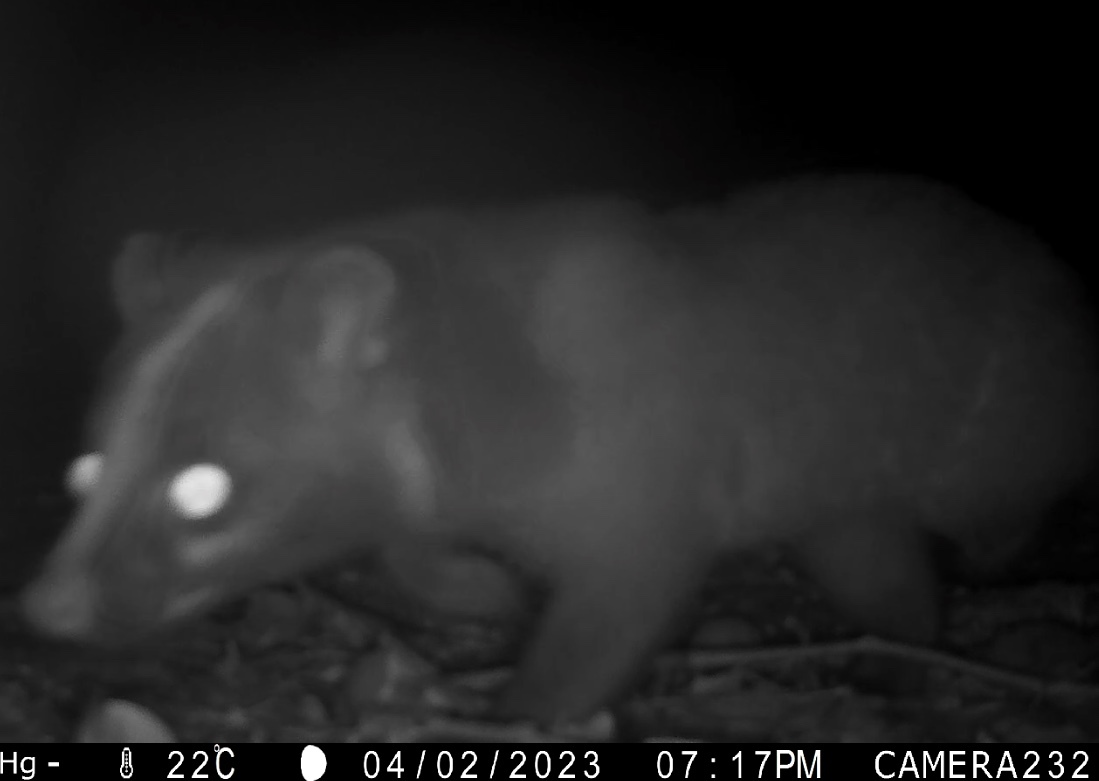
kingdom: Animalia
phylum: Chordata
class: Mammalia
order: Carnivora
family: Viverridae
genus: Paguma
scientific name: Paguma larvata
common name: Masked palm civet
